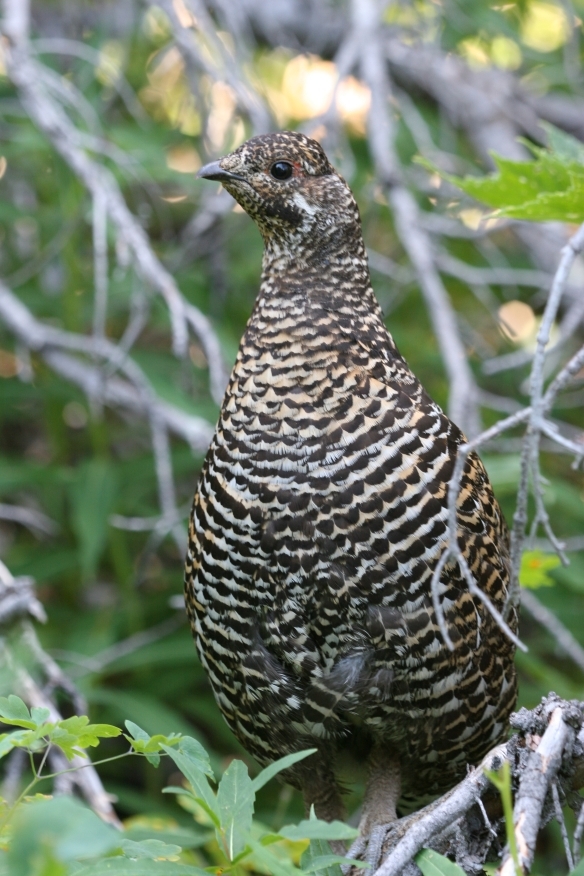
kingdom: Animalia
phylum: Chordata
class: Aves
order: Galliformes
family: Phasianidae
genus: Canachites
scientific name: Canachites canadensis
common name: Spruce grouse
